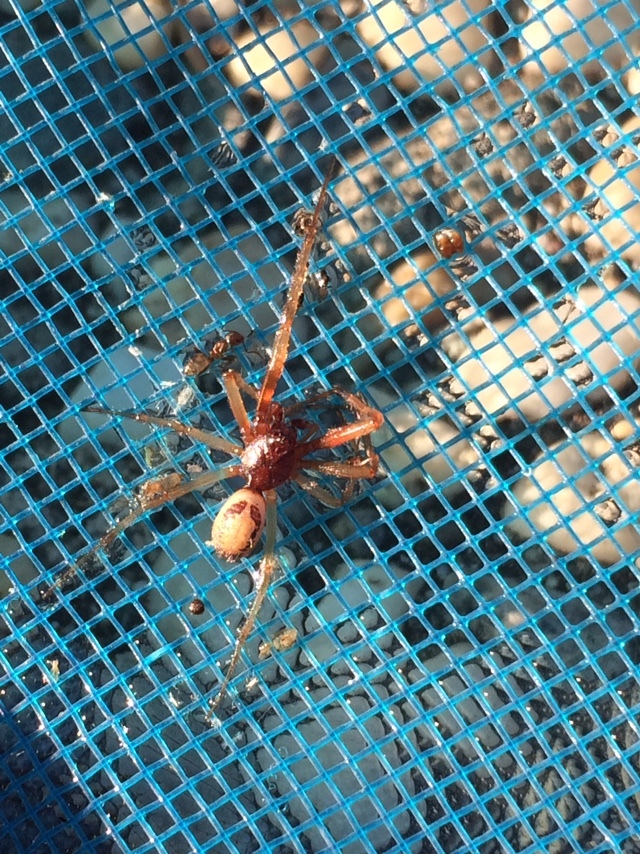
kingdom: Animalia
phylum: Arthropoda
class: Arachnida
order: Araneae
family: Theridiidae
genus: Steatoda
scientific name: Steatoda nobilis
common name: Cobweb weaver
